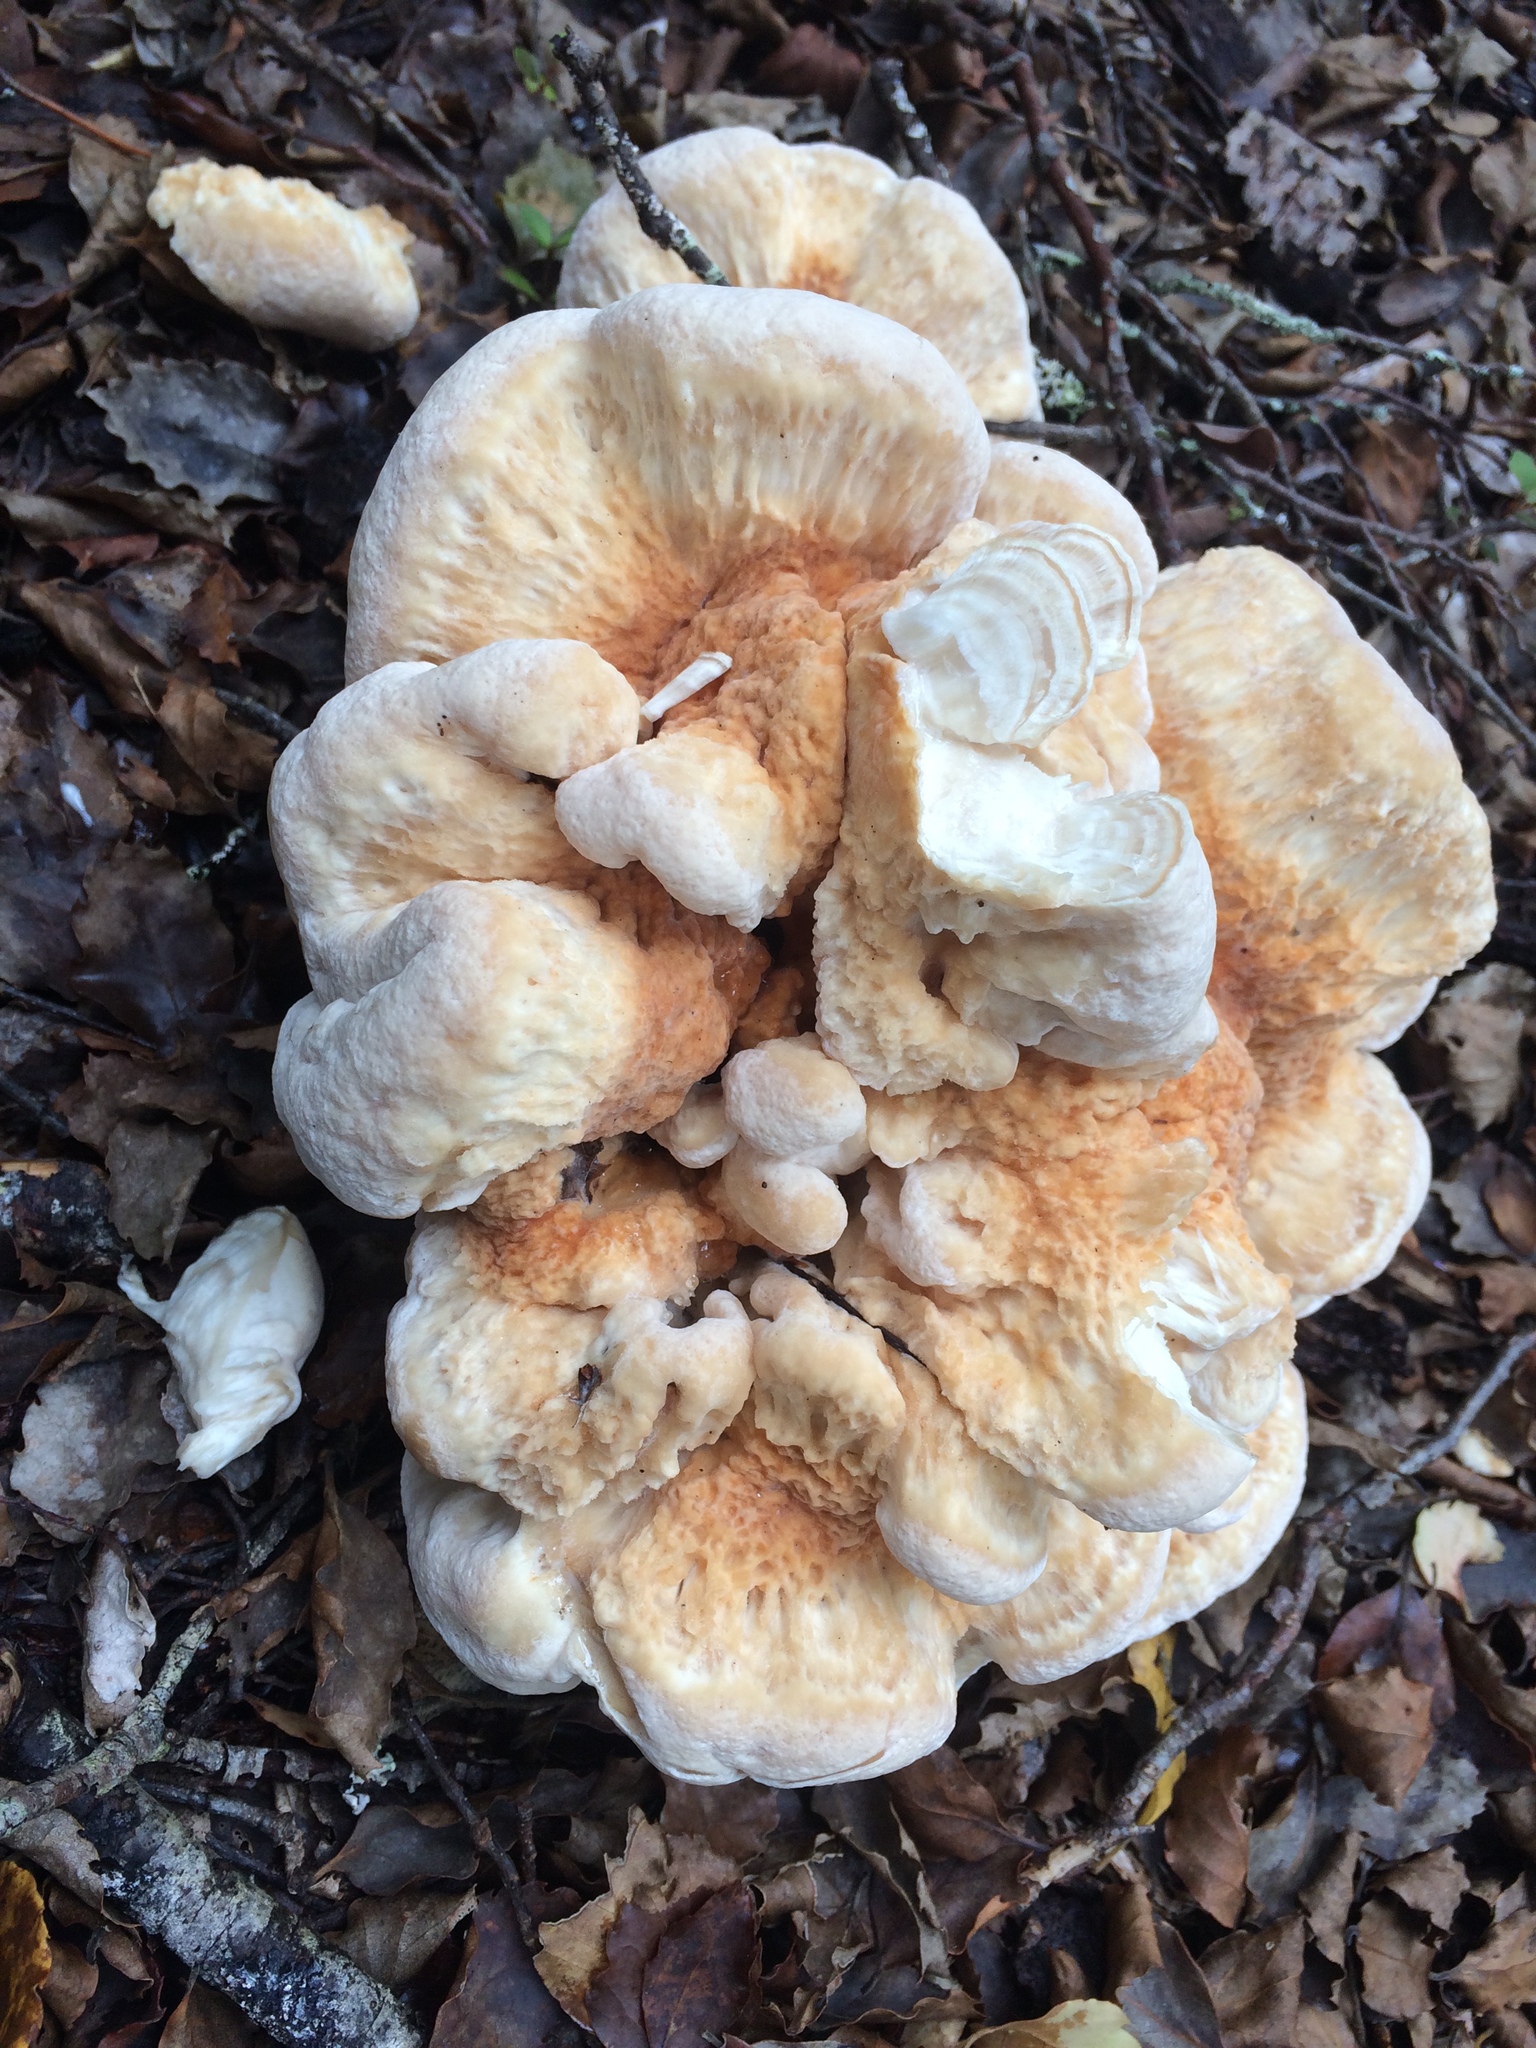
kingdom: Fungi
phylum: Basidiomycota
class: Agaricomycetes
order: Russulales
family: Bondarzewiaceae
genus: Bondarzewia
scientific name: Bondarzewia kirkii
